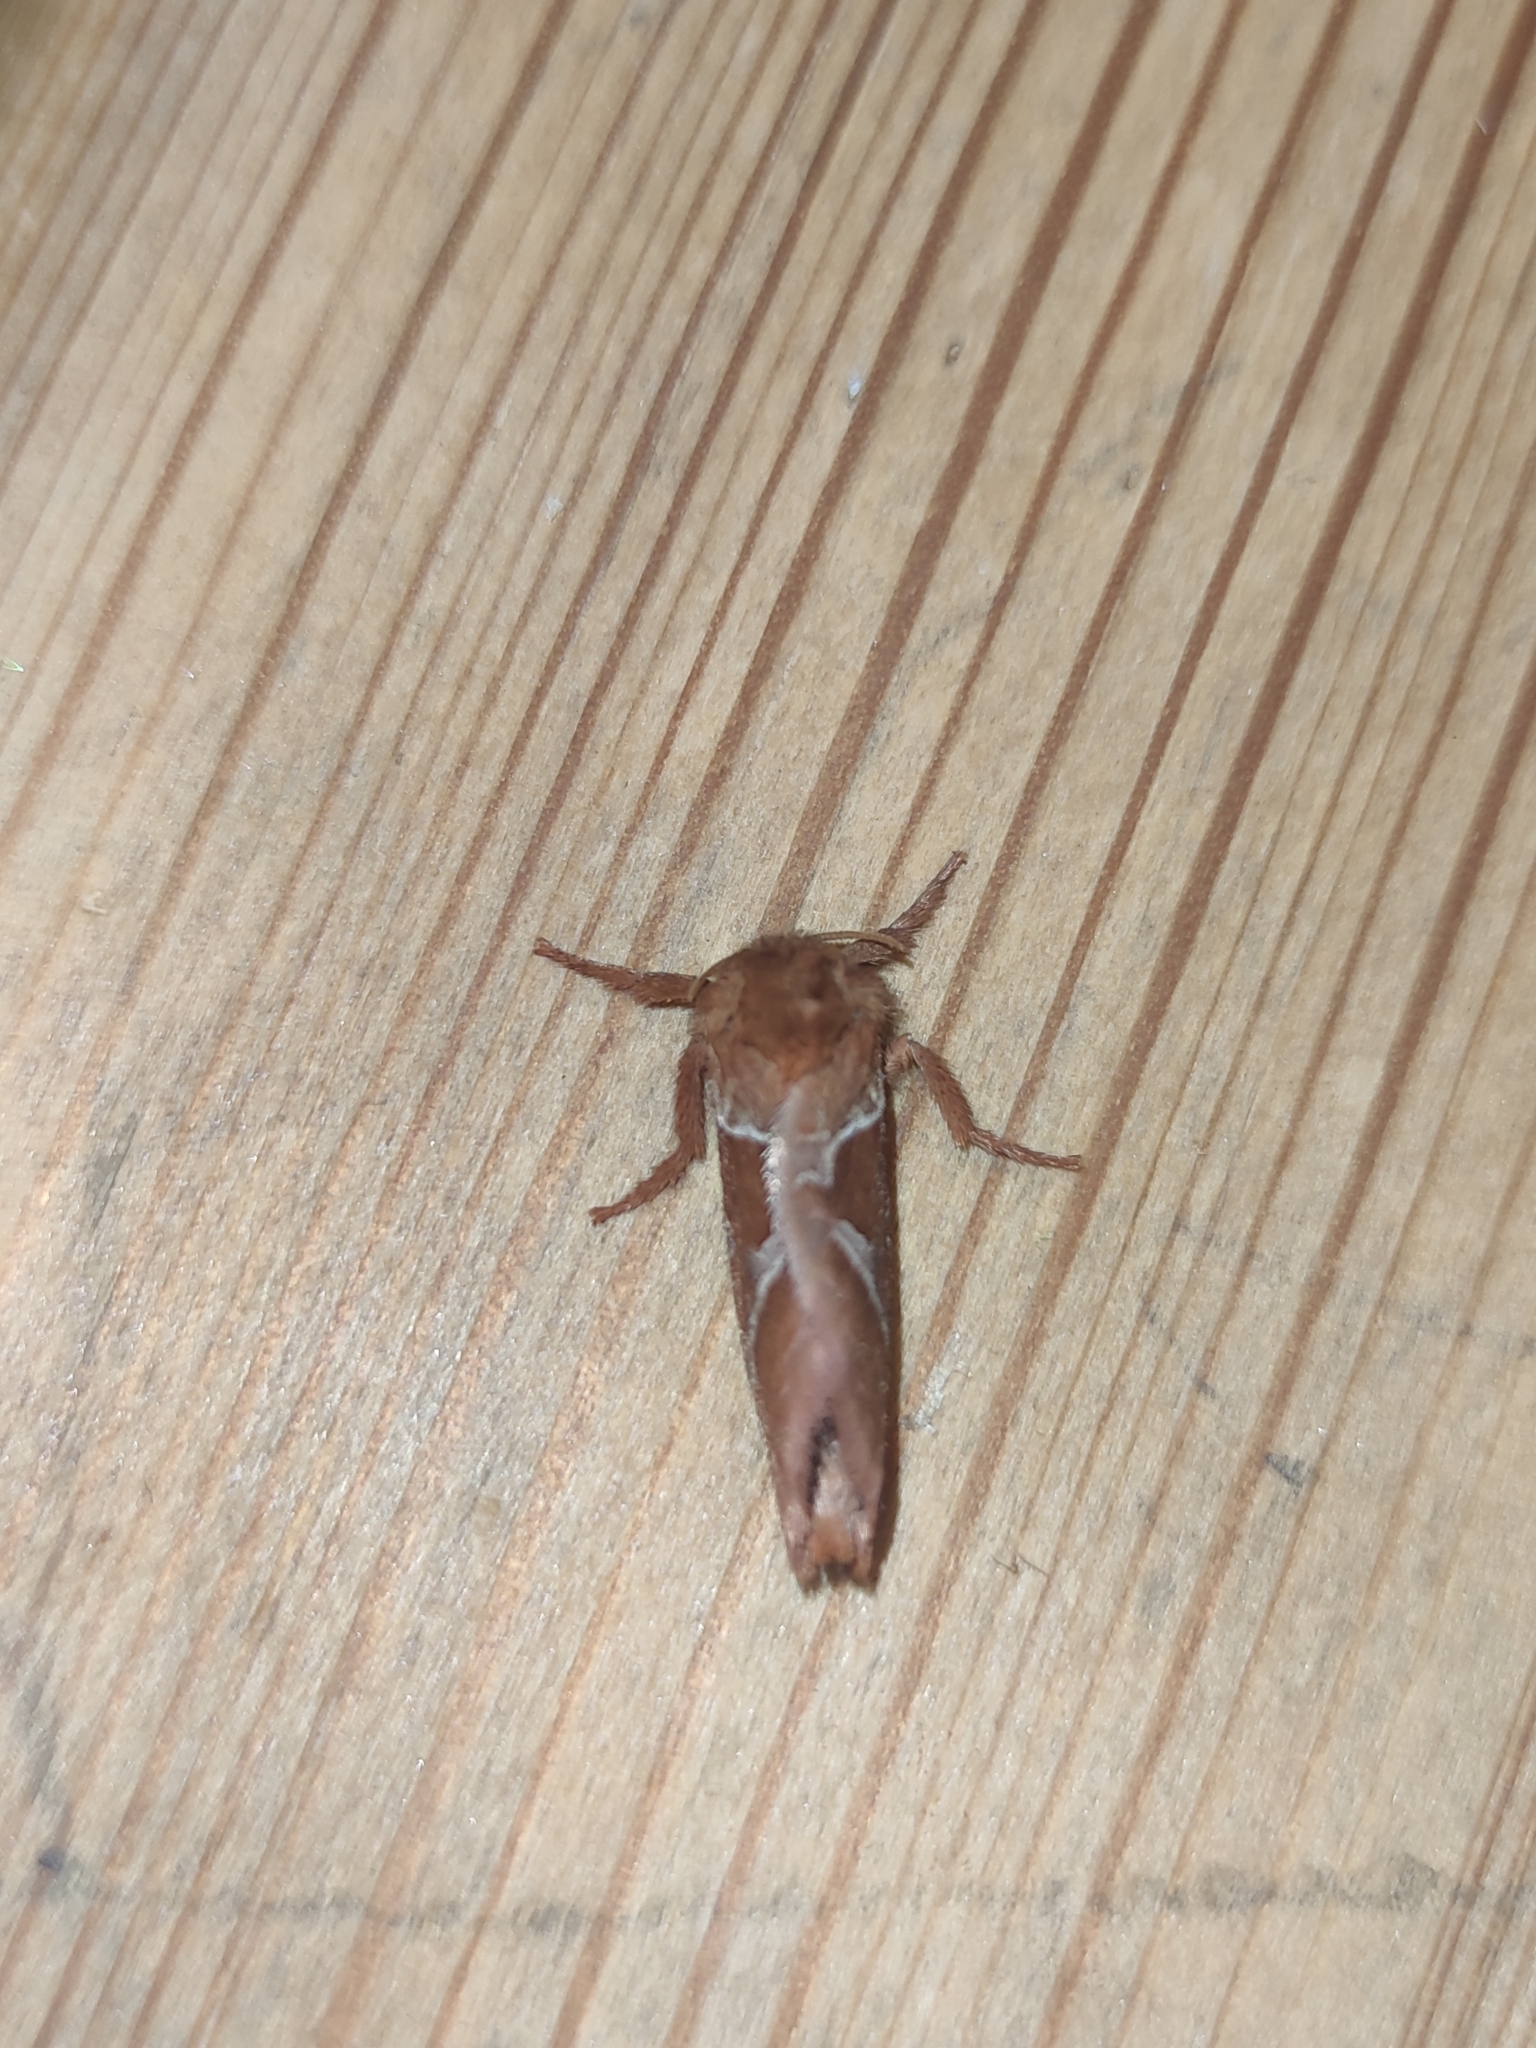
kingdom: Animalia
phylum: Arthropoda
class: Insecta
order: Lepidoptera
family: Hepialidae
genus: Triodia
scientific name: Triodia sylvina
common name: Orange swift
